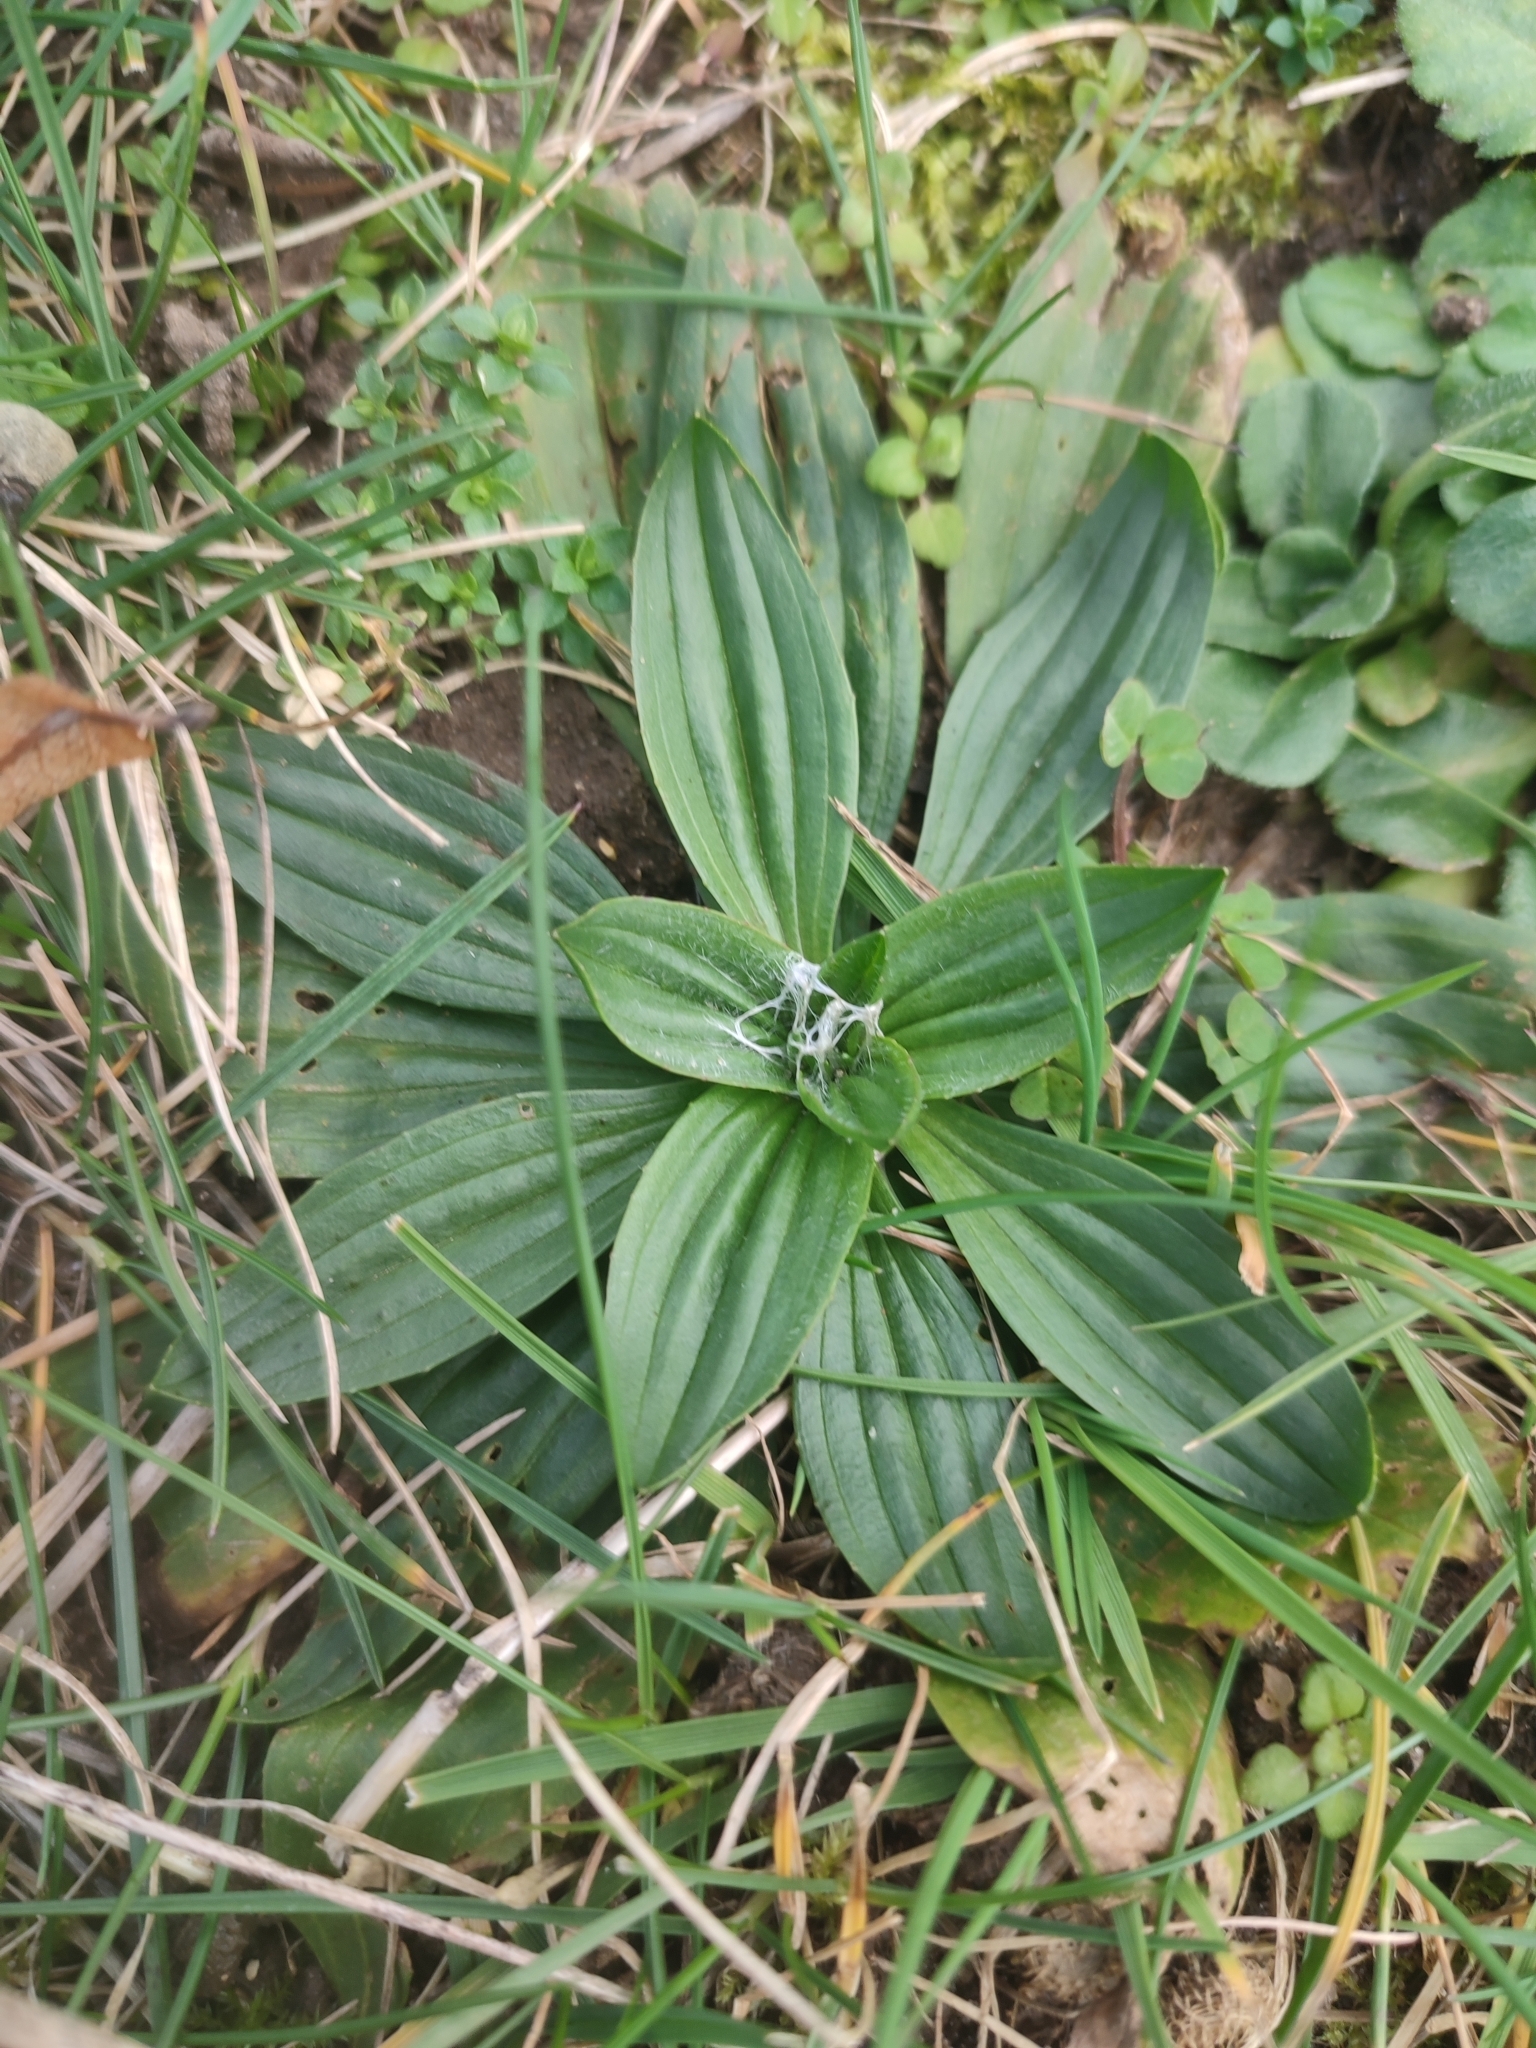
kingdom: Plantae
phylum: Tracheophyta
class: Magnoliopsida
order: Lamiales
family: Plantaginaceae
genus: Plantago
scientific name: Plantago lanceolata
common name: Ribwort plantain
